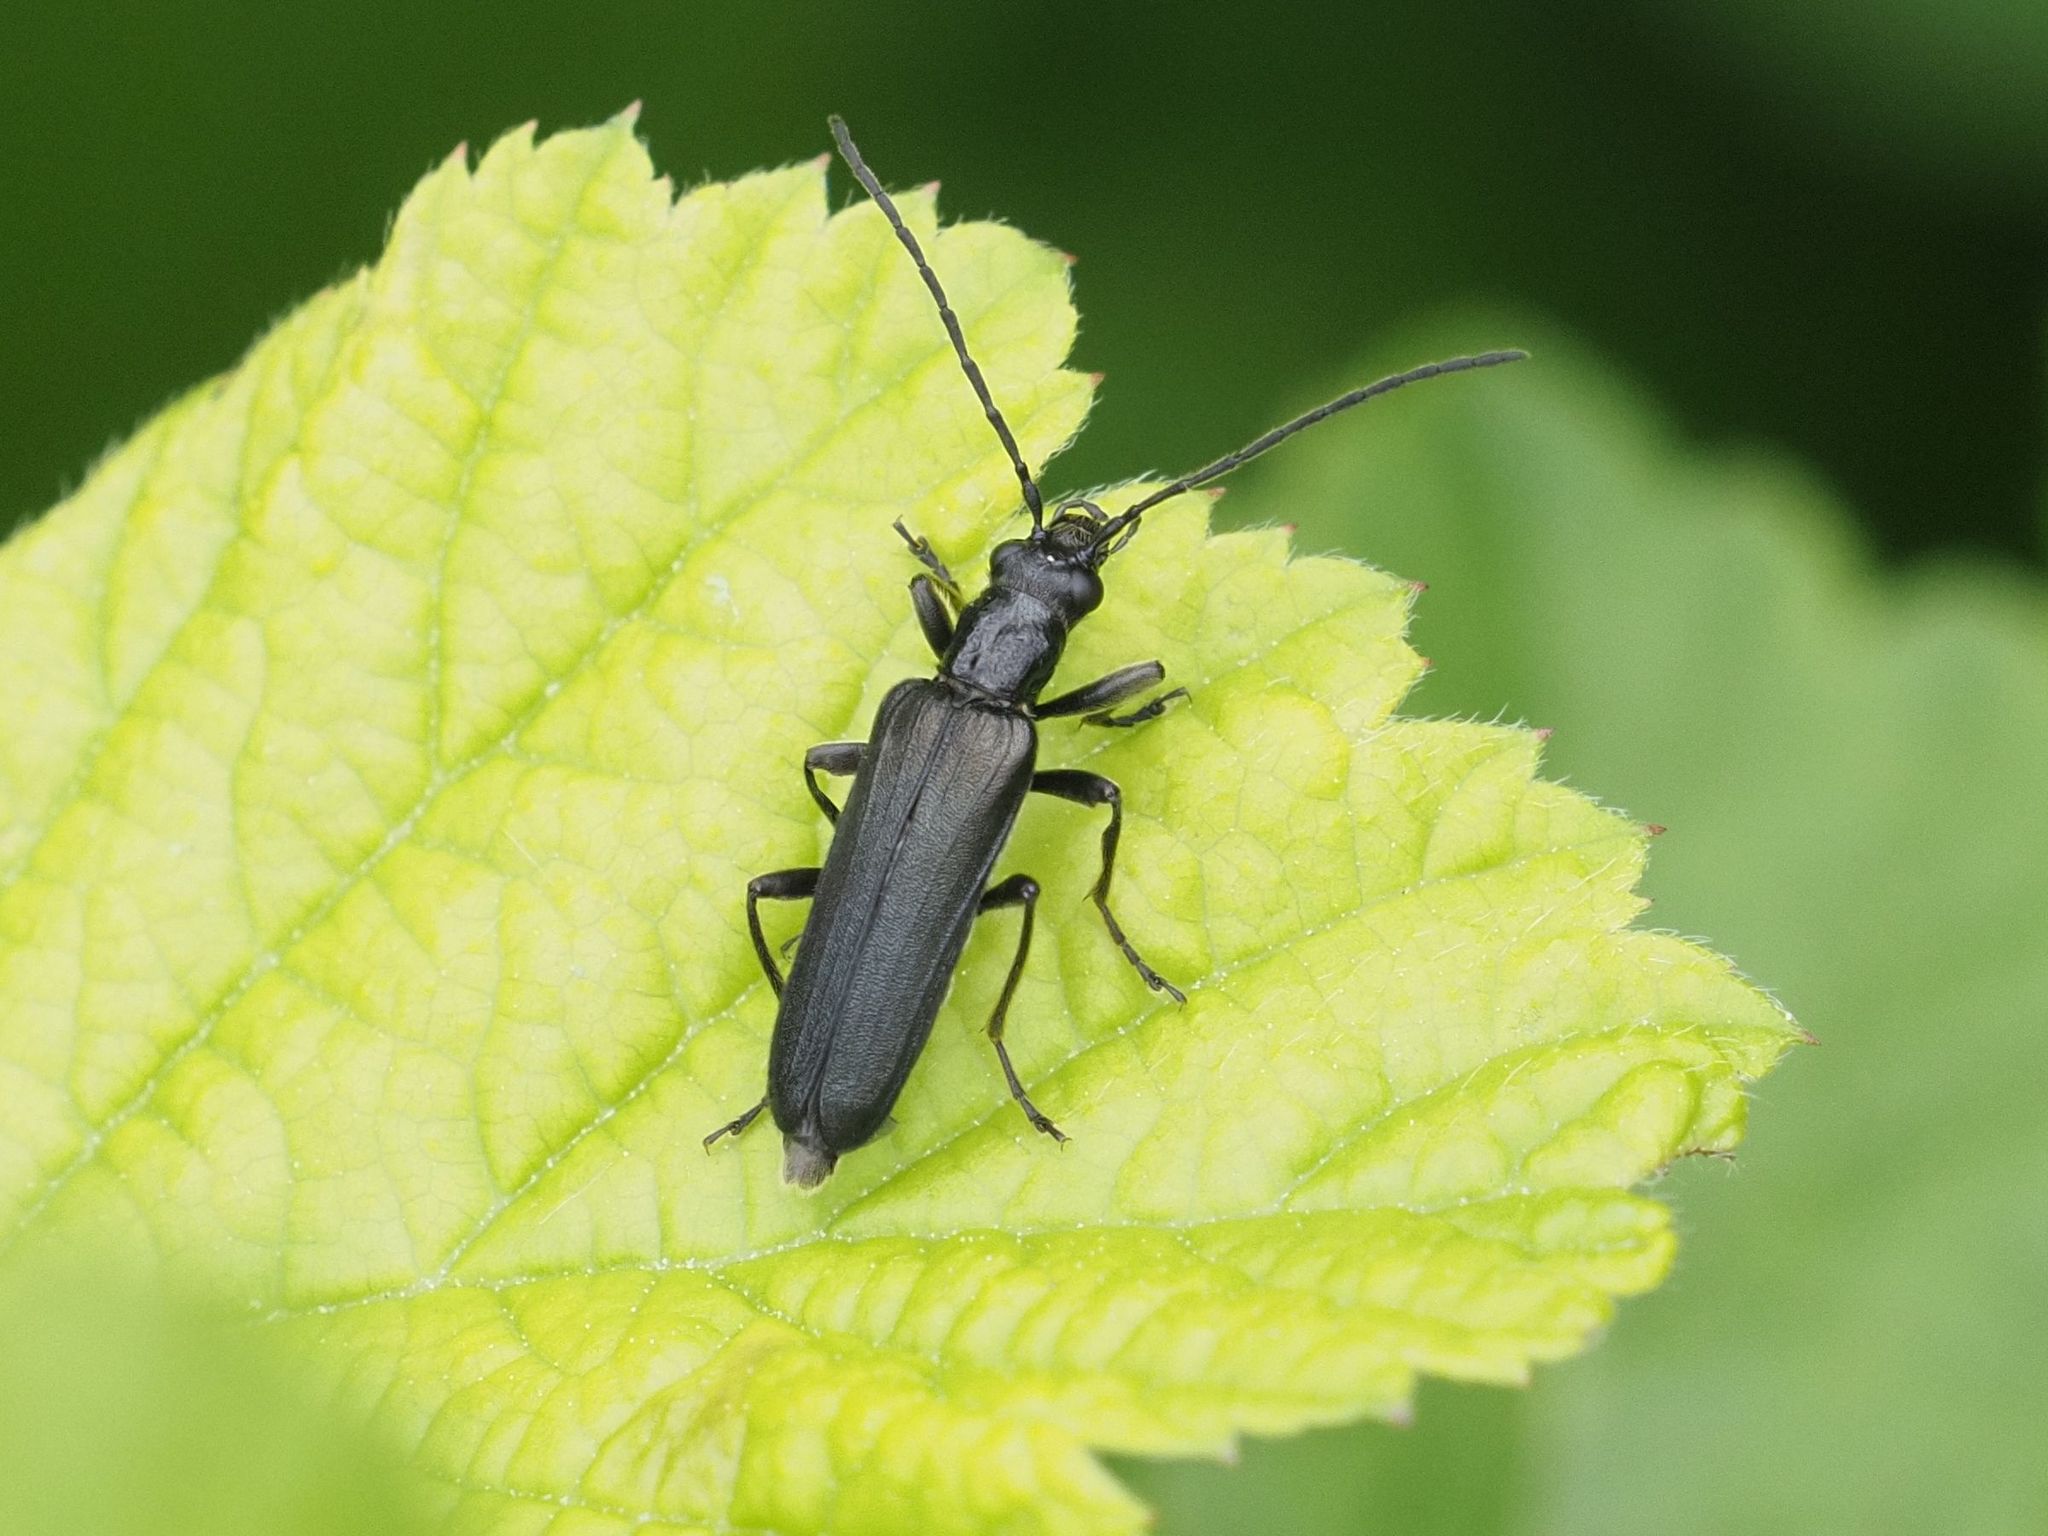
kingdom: Animalia
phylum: Arthropoda
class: Insecta
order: Coleoptera
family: Oedemeridae
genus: Anogcodes
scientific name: Anogcodes fulvicollis
